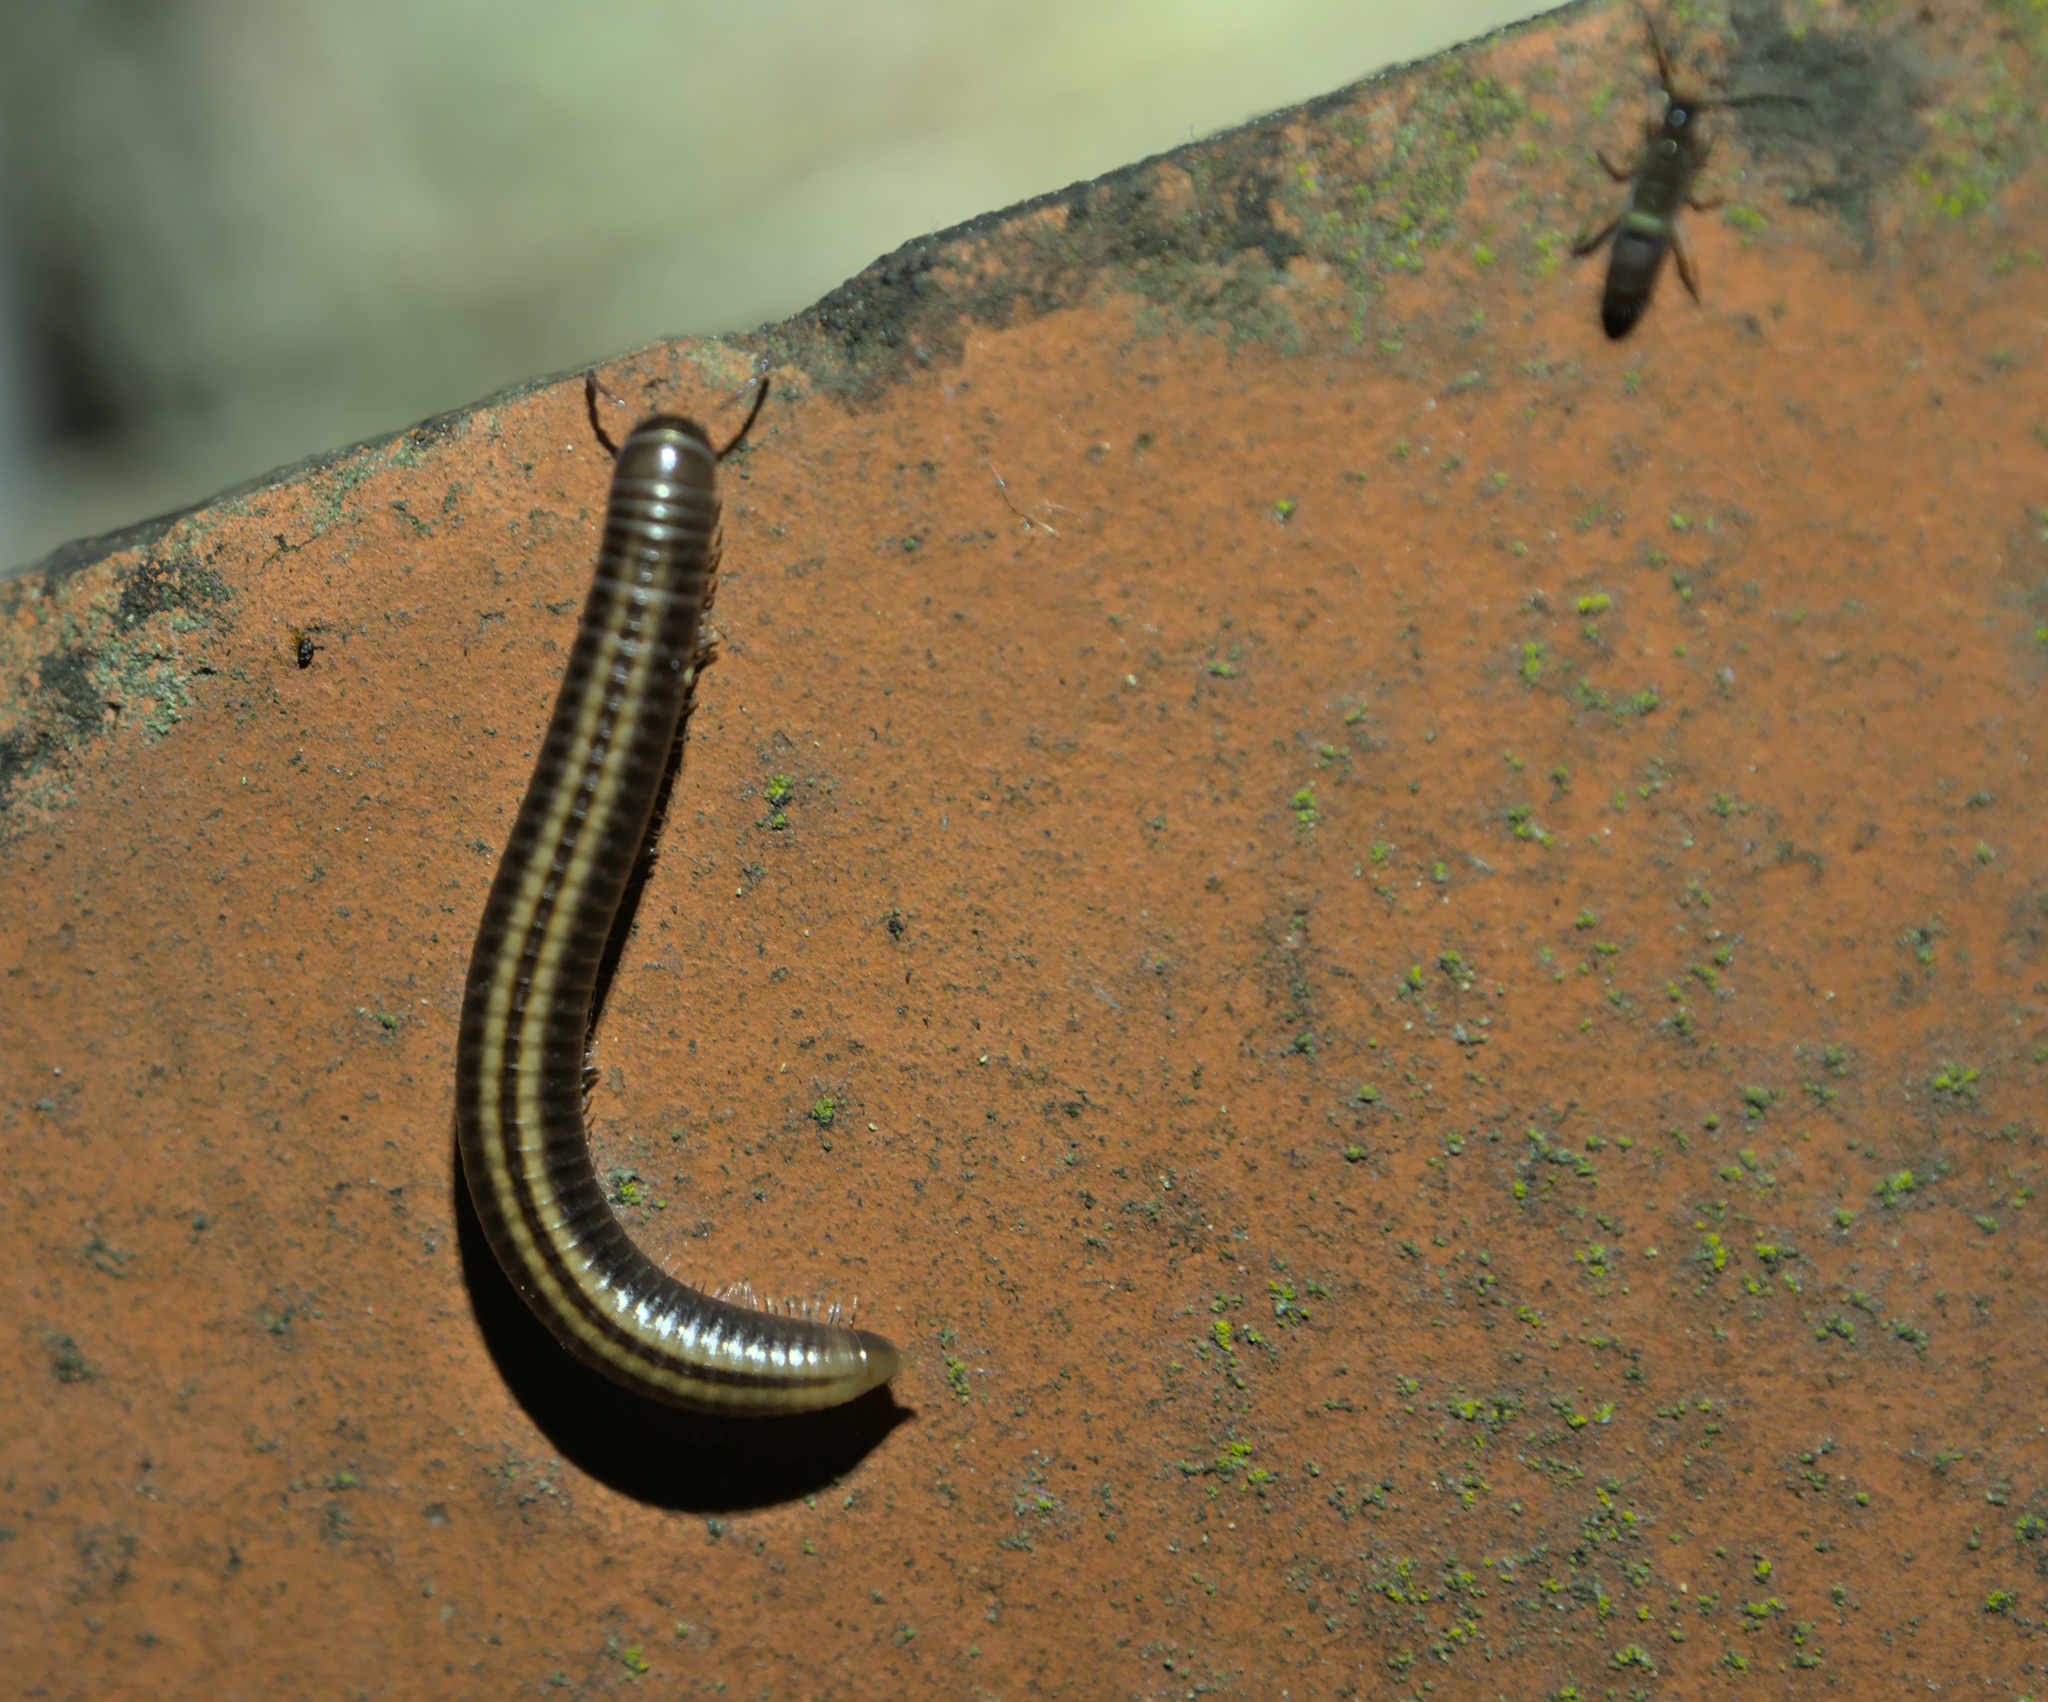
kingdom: Animalia
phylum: Arthropoda
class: Diplopoda
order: Julida
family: Julidae
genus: Ommatoiulus
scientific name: Ommatoiulus sabulosus
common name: Striped millipede
